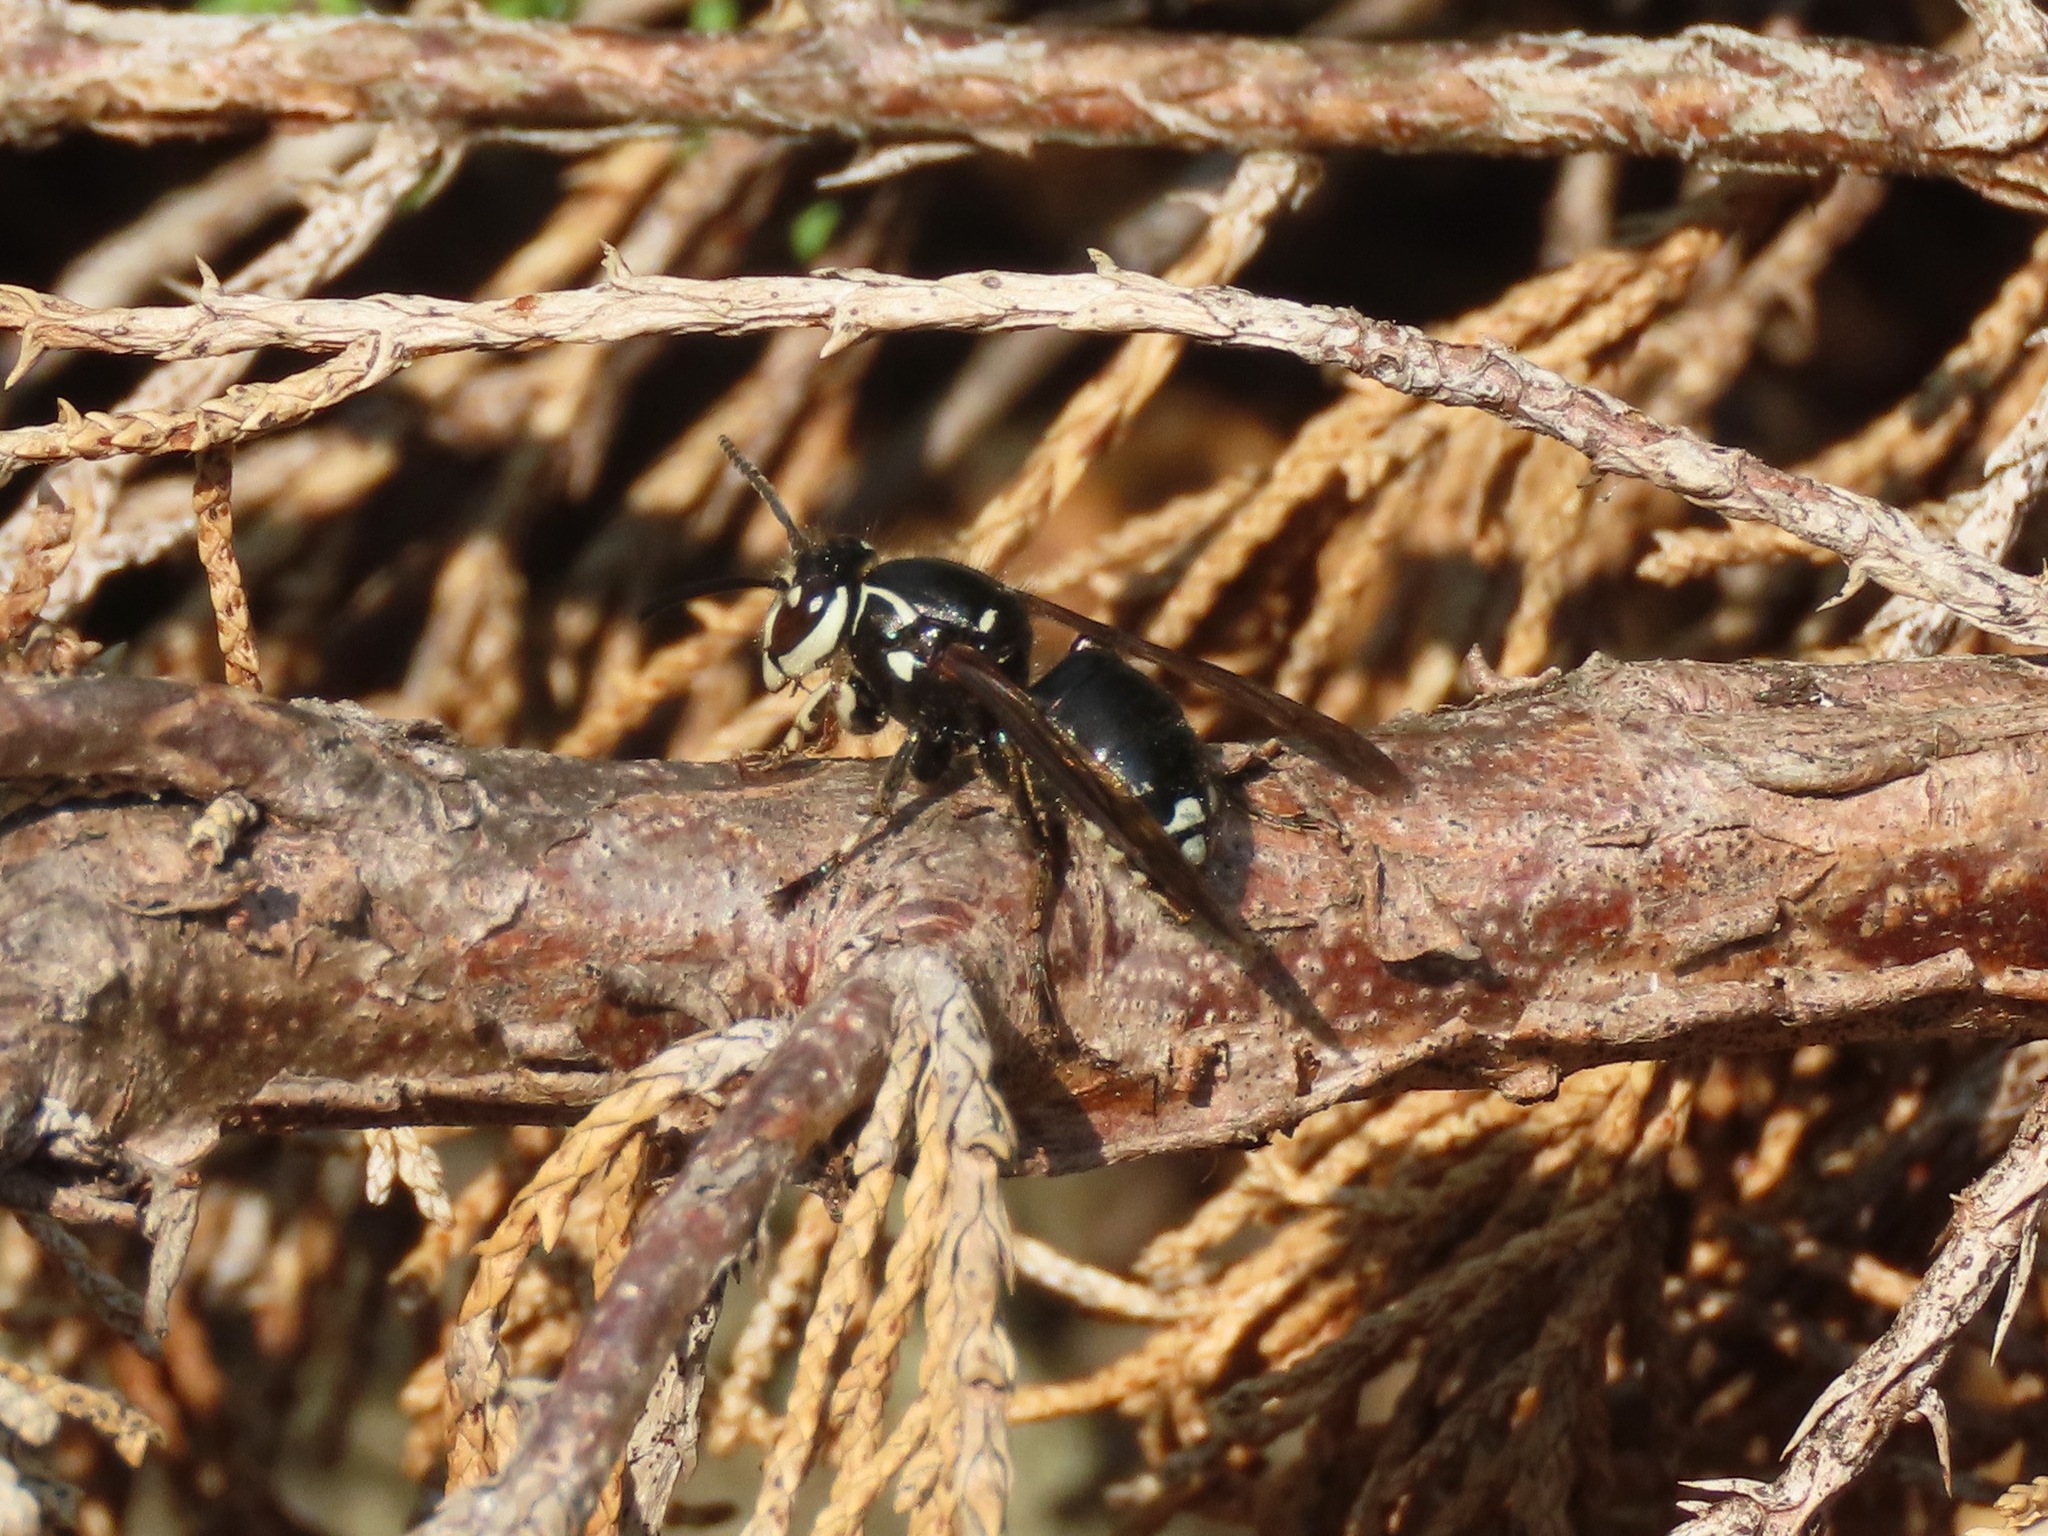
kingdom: Animalia
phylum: Arthropoda
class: Insecta
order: Hymenoptera
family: Vespidae
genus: Dolichovespula
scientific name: Dolichovespula maculata
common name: Bald-faced hornet
